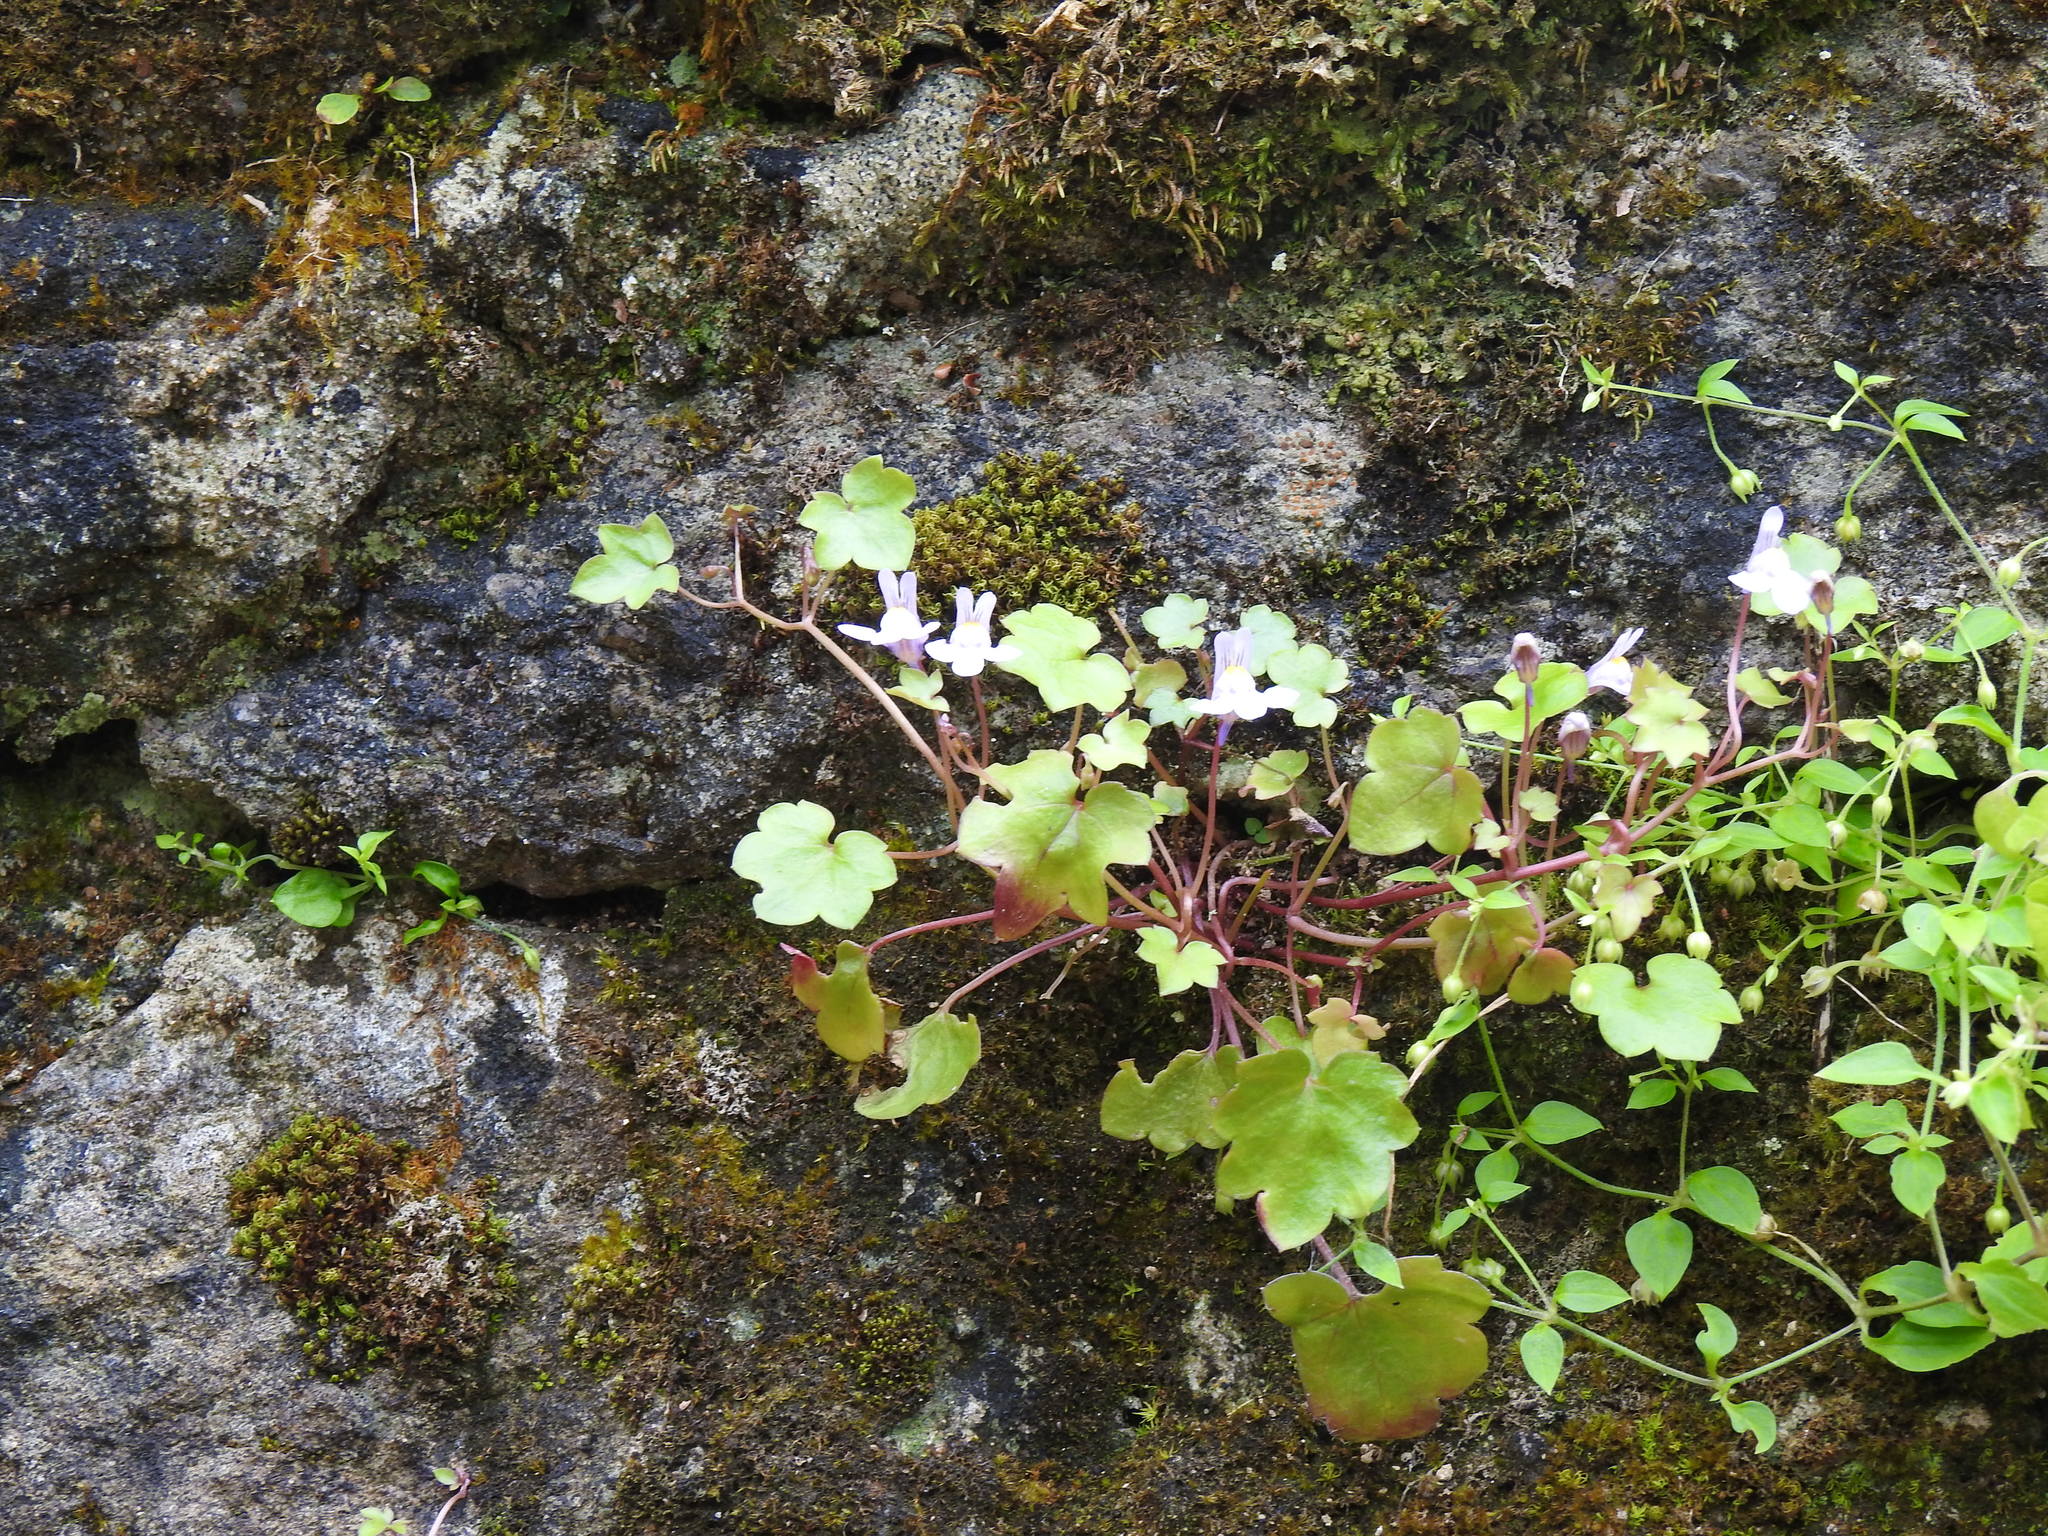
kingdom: Plantae
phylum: Tracheophyta
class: Magnoliopsida
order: Lamiales
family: Plantaginaceae
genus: Cymbalaria
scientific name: Cymbalaria muralis
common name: Ivy-leaved toadflax
